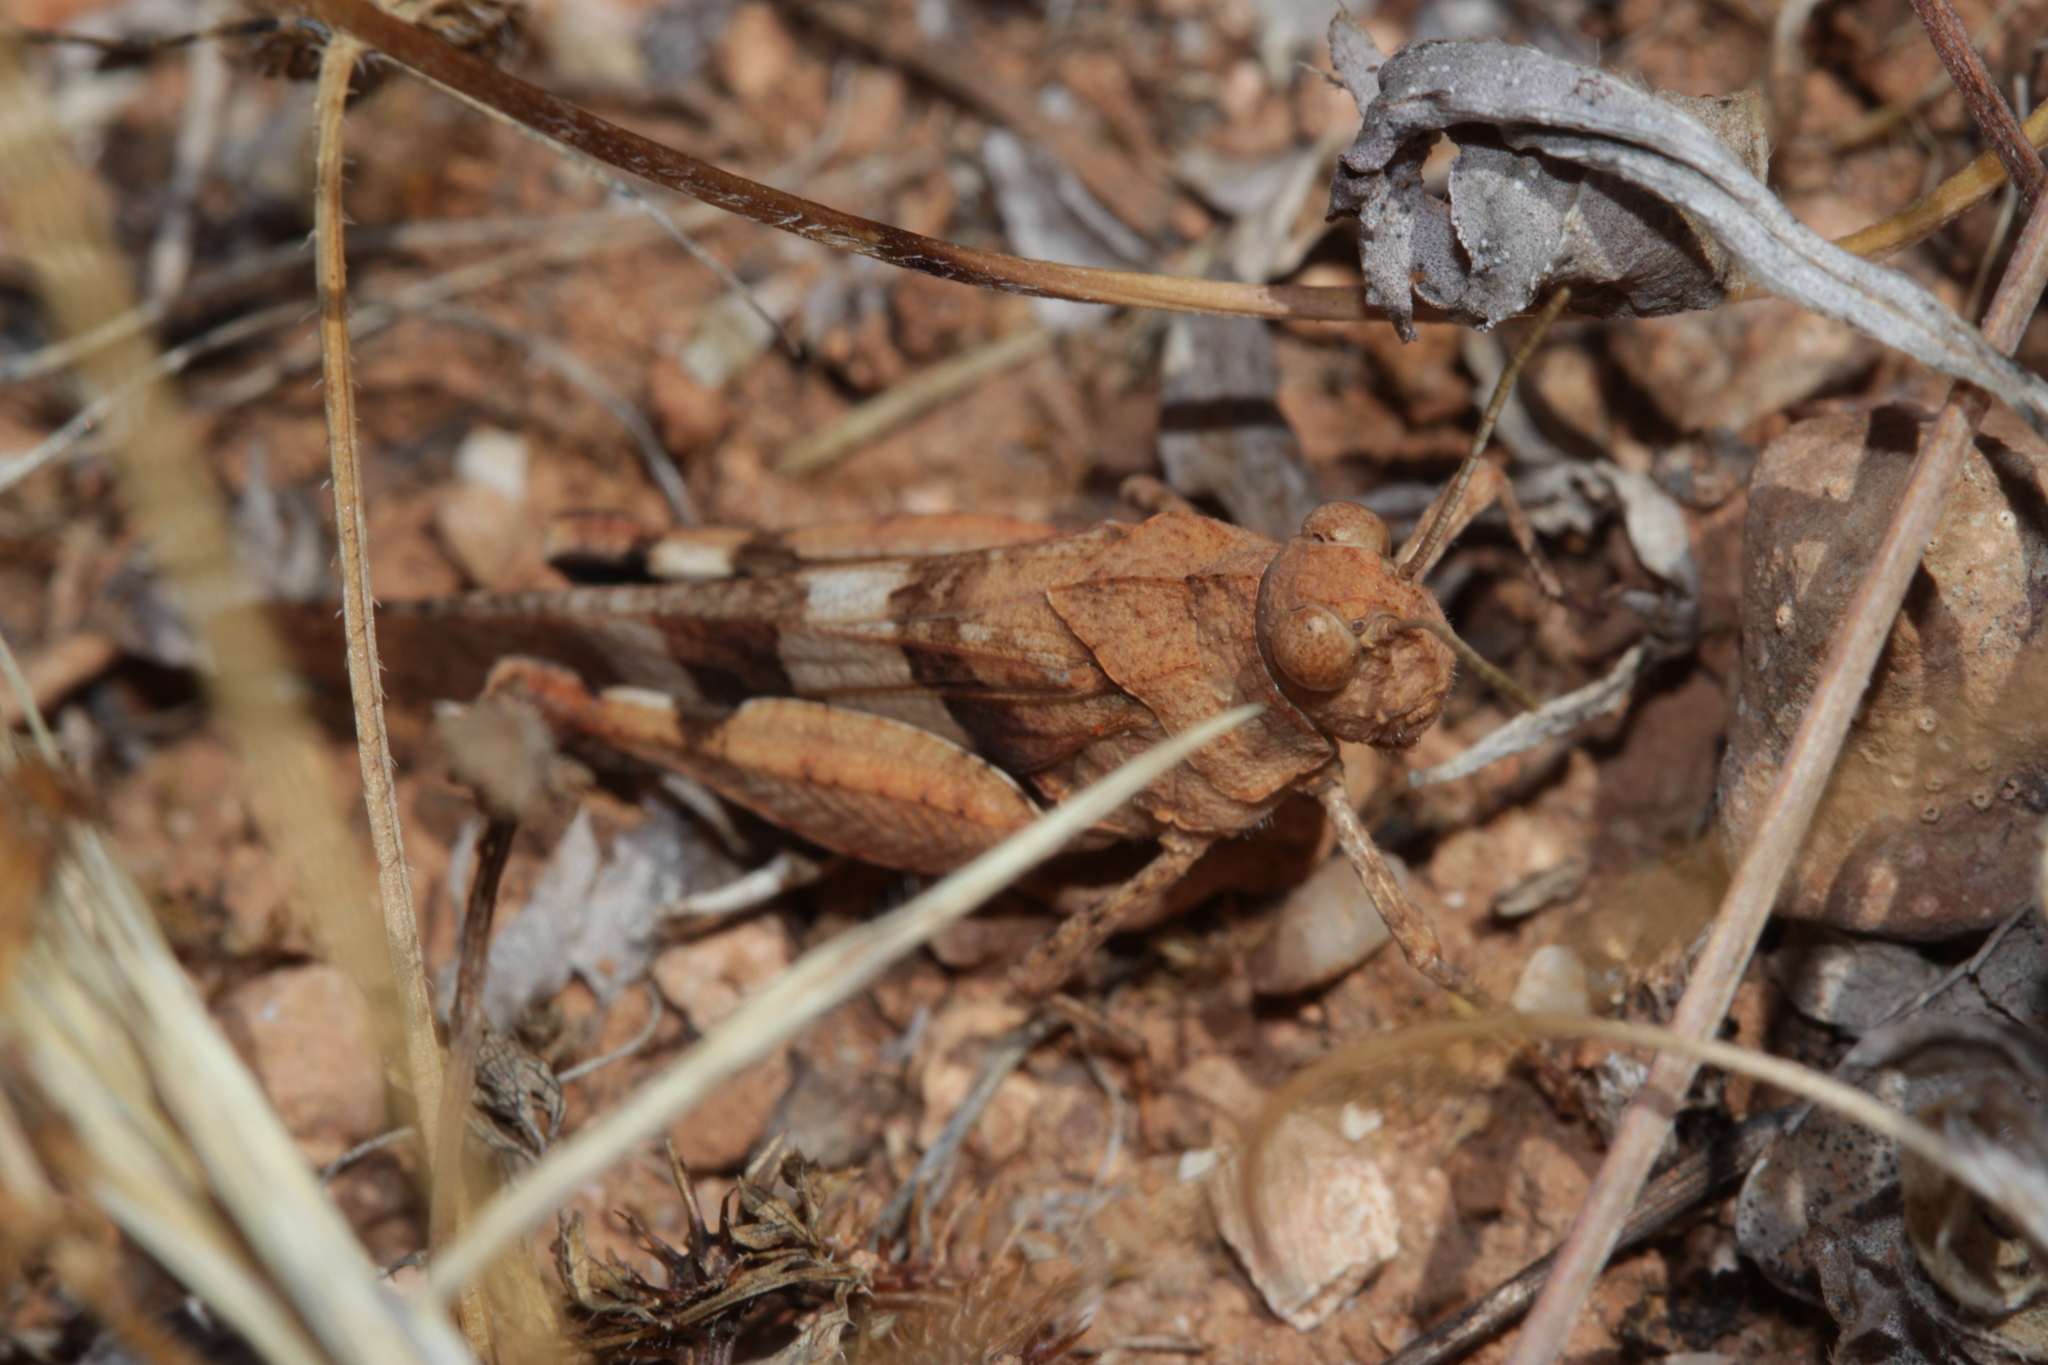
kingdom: Animalia
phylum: Arthropoda
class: Insecta
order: Orthoptera
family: Acrididae
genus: Oedipoda
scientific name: Oedipoda caerulescens
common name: Blue-winged grasshopper
